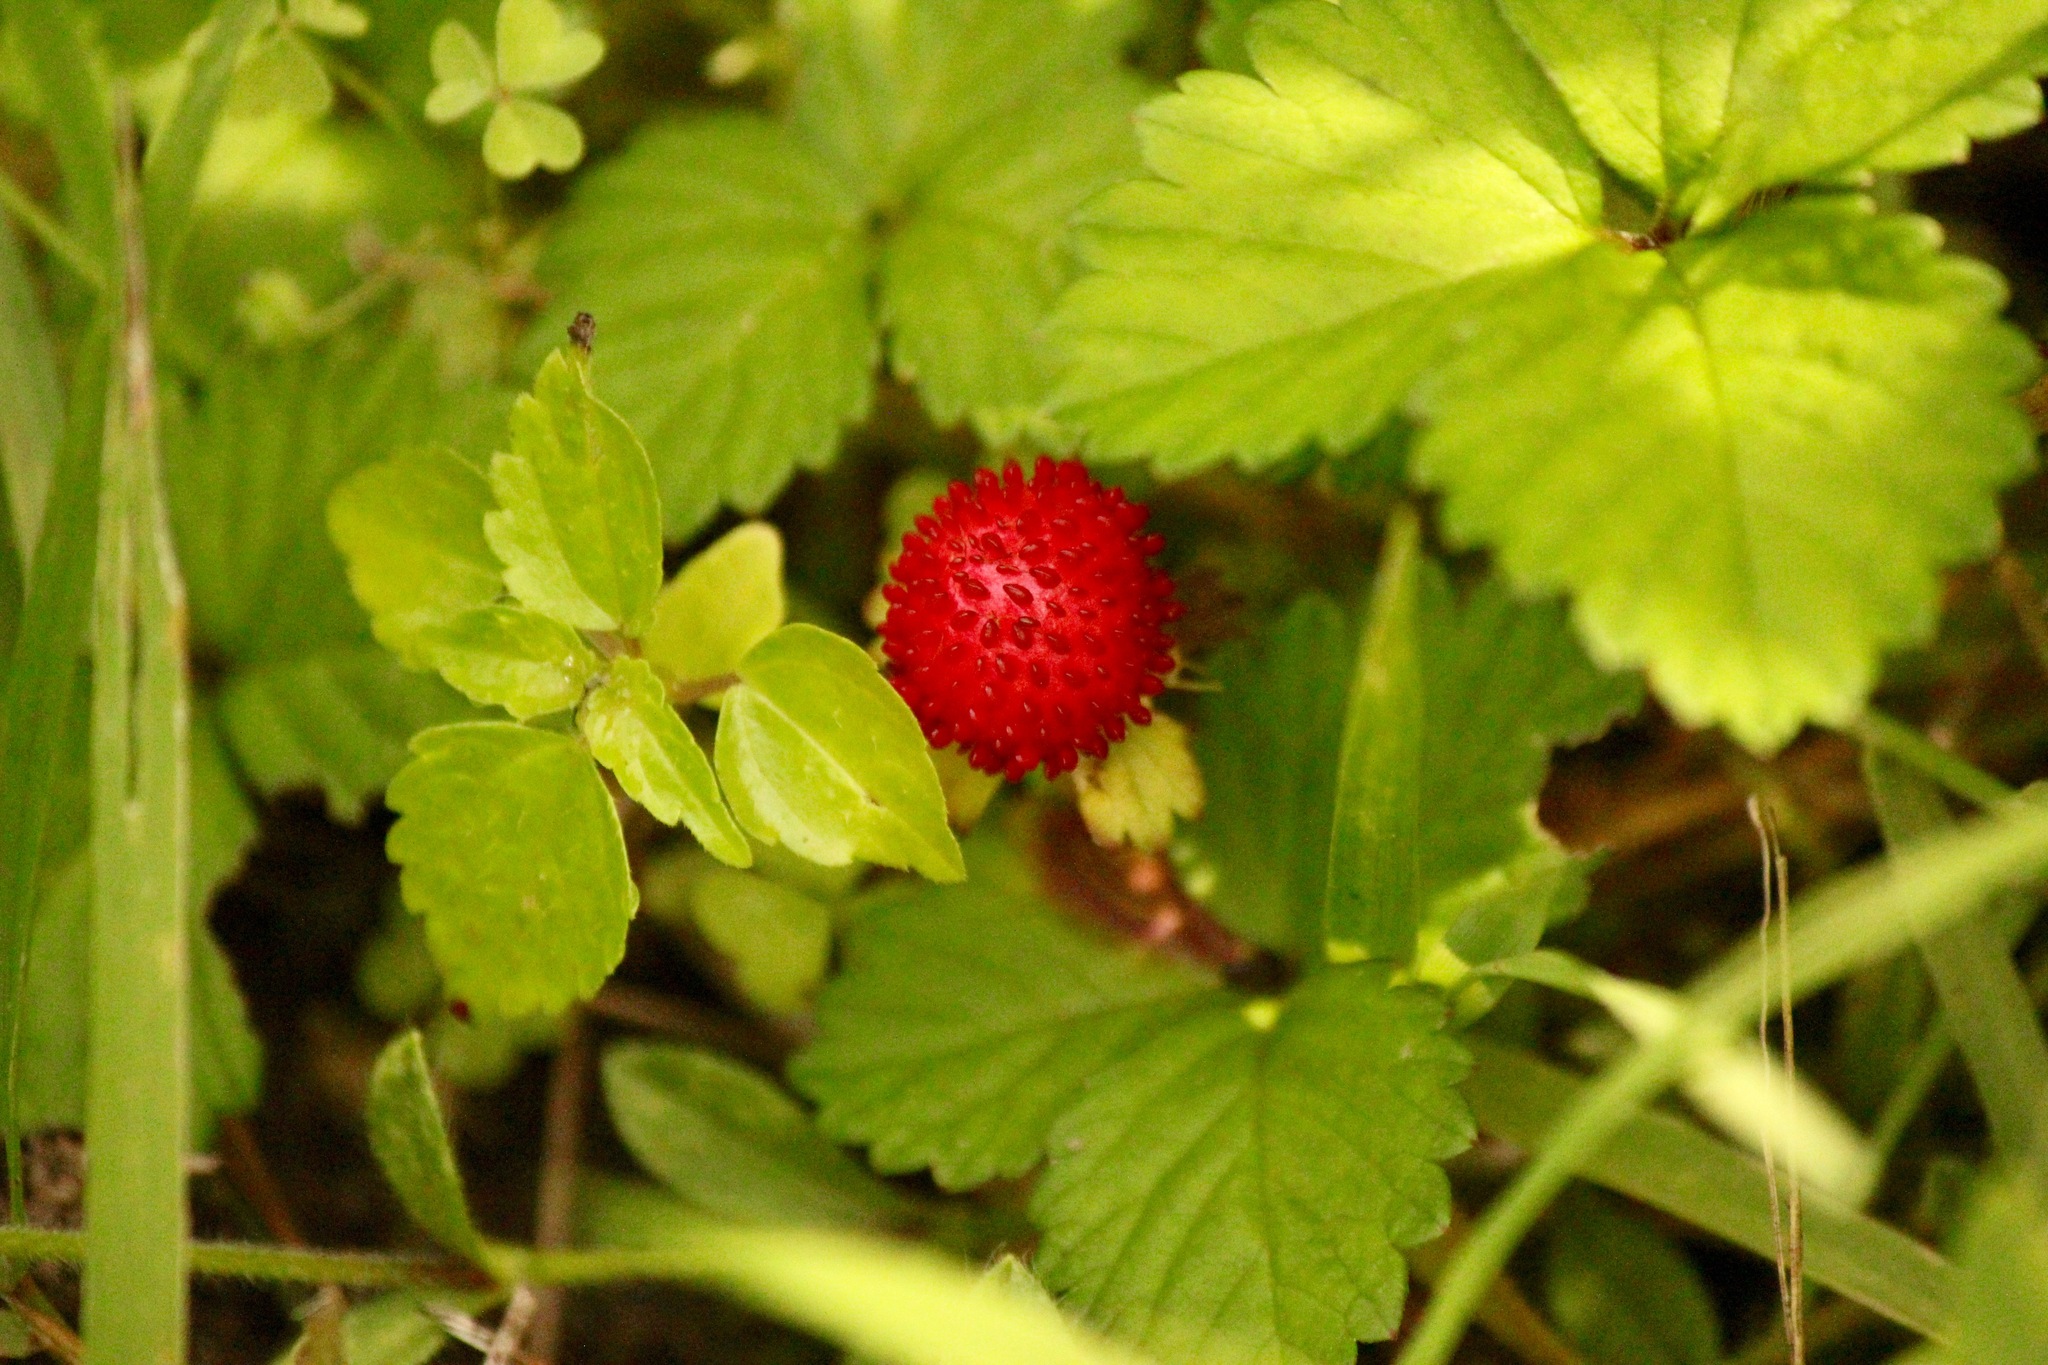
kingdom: Plantae
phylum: Tracheophyta
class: Magnoliopsida
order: Rosales
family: Rosaceae
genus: Potentilla
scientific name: Potentilla indica
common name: Yellow-flowered strawberry
